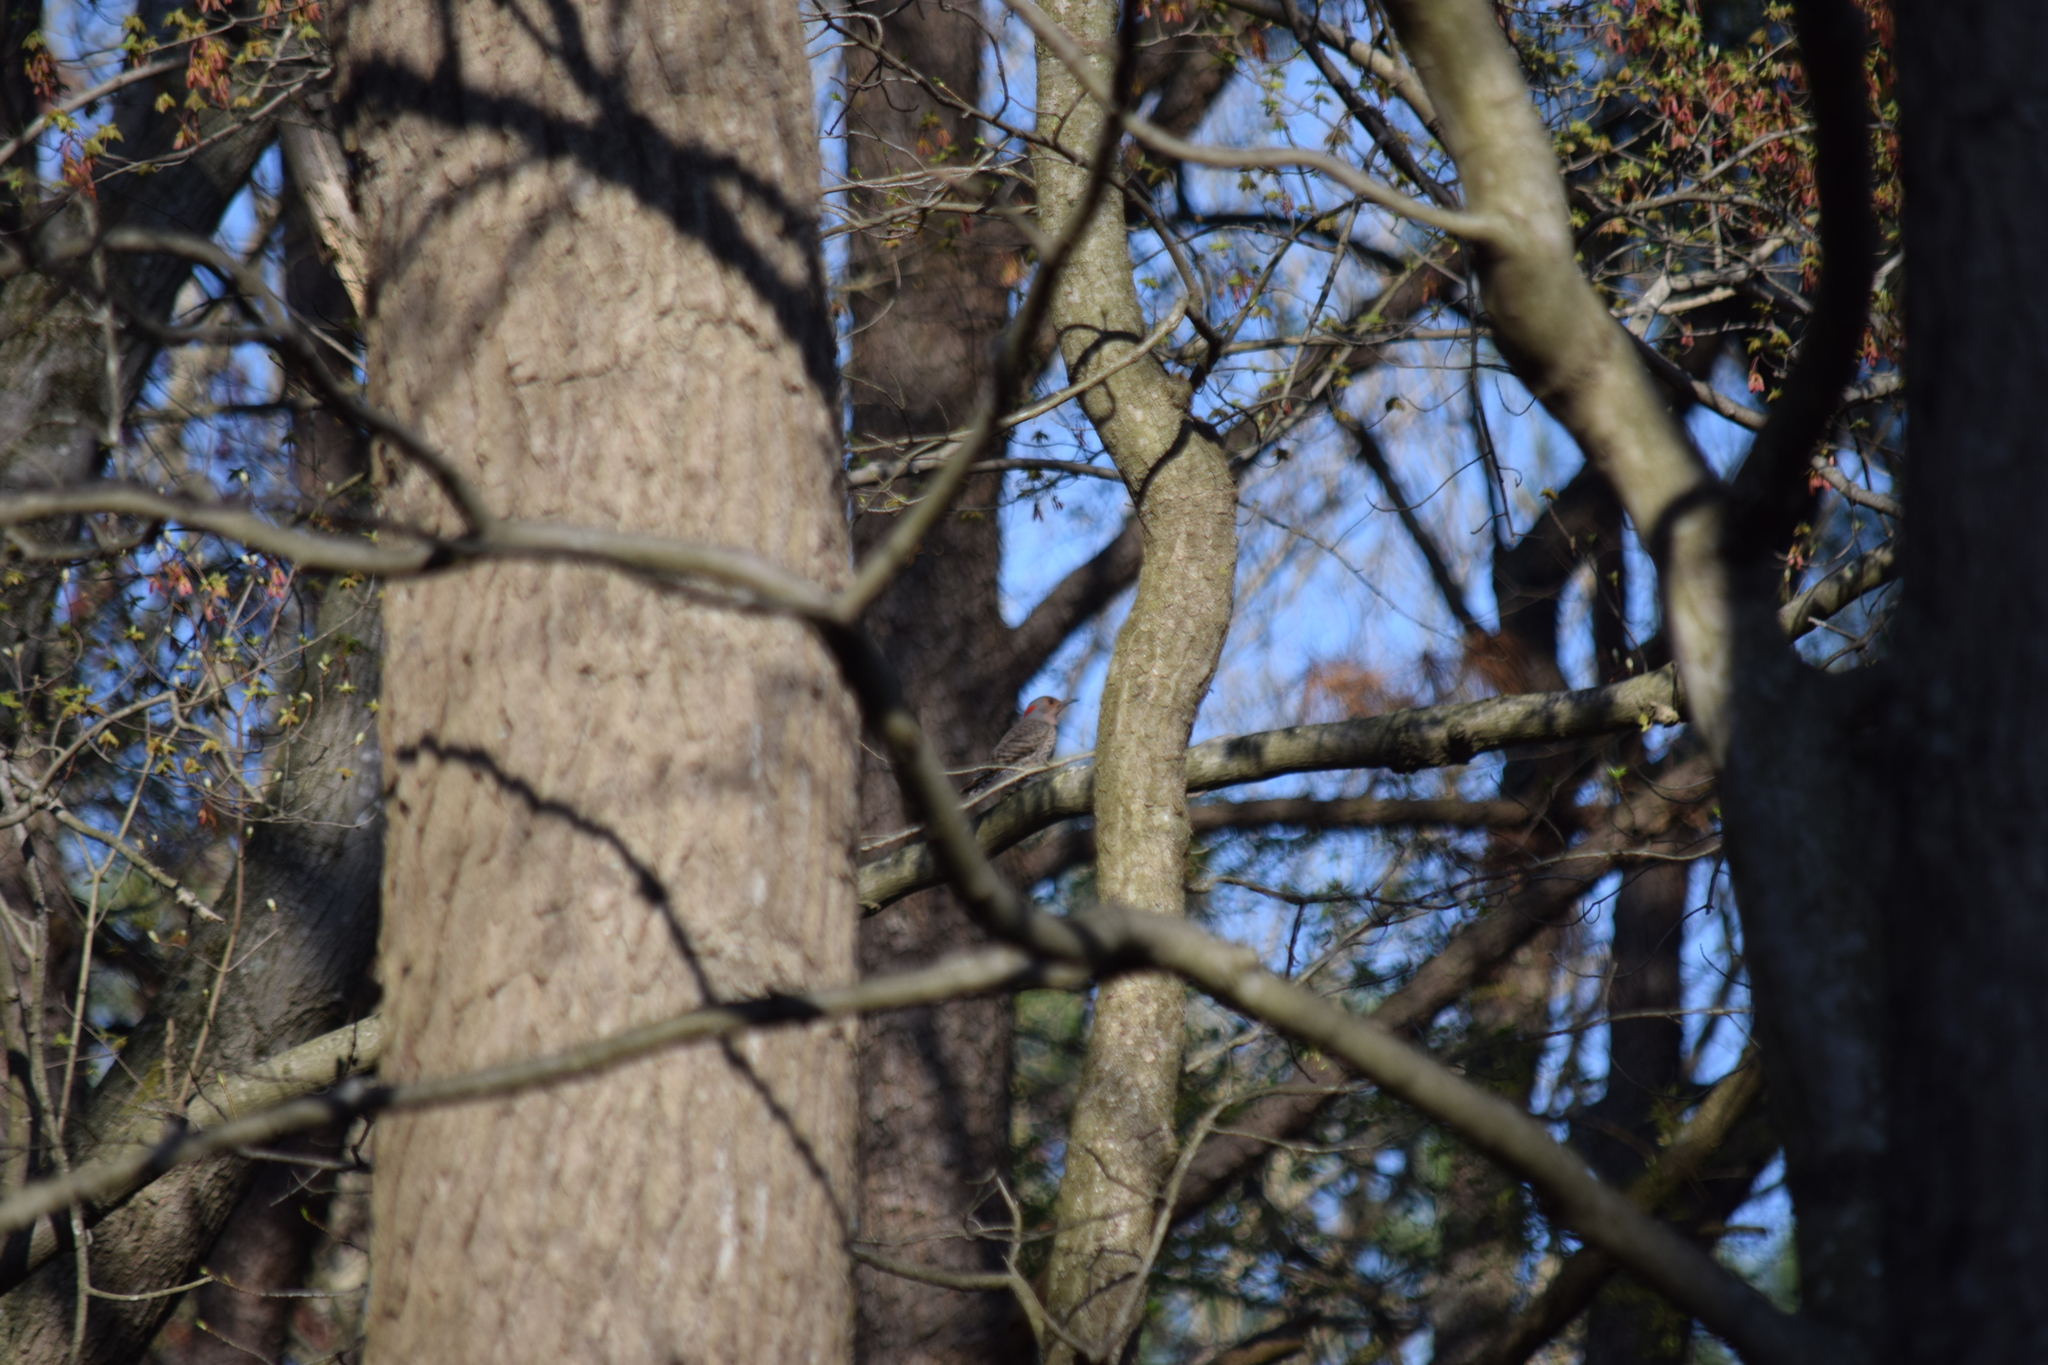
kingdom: Animalia
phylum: Chordata
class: Aves
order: Piciformes
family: Picidae
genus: Colaptes
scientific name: Colaptes auratus
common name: Northern flicker
